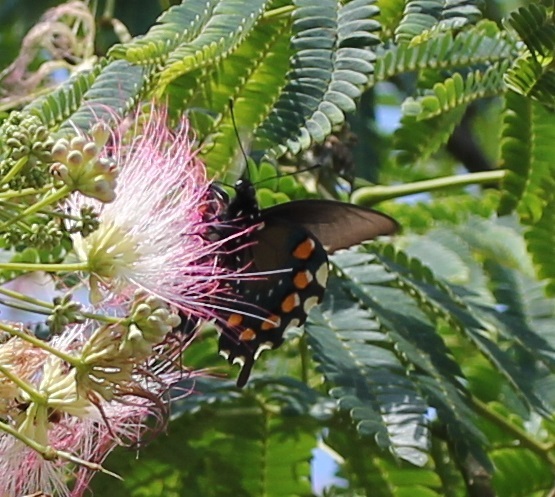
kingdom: Animalia
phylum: Arthropoda
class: Insecta
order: Lepidoptera
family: Papilionidae
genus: Battus
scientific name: Battus philenor
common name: Pipevine swallowtail
